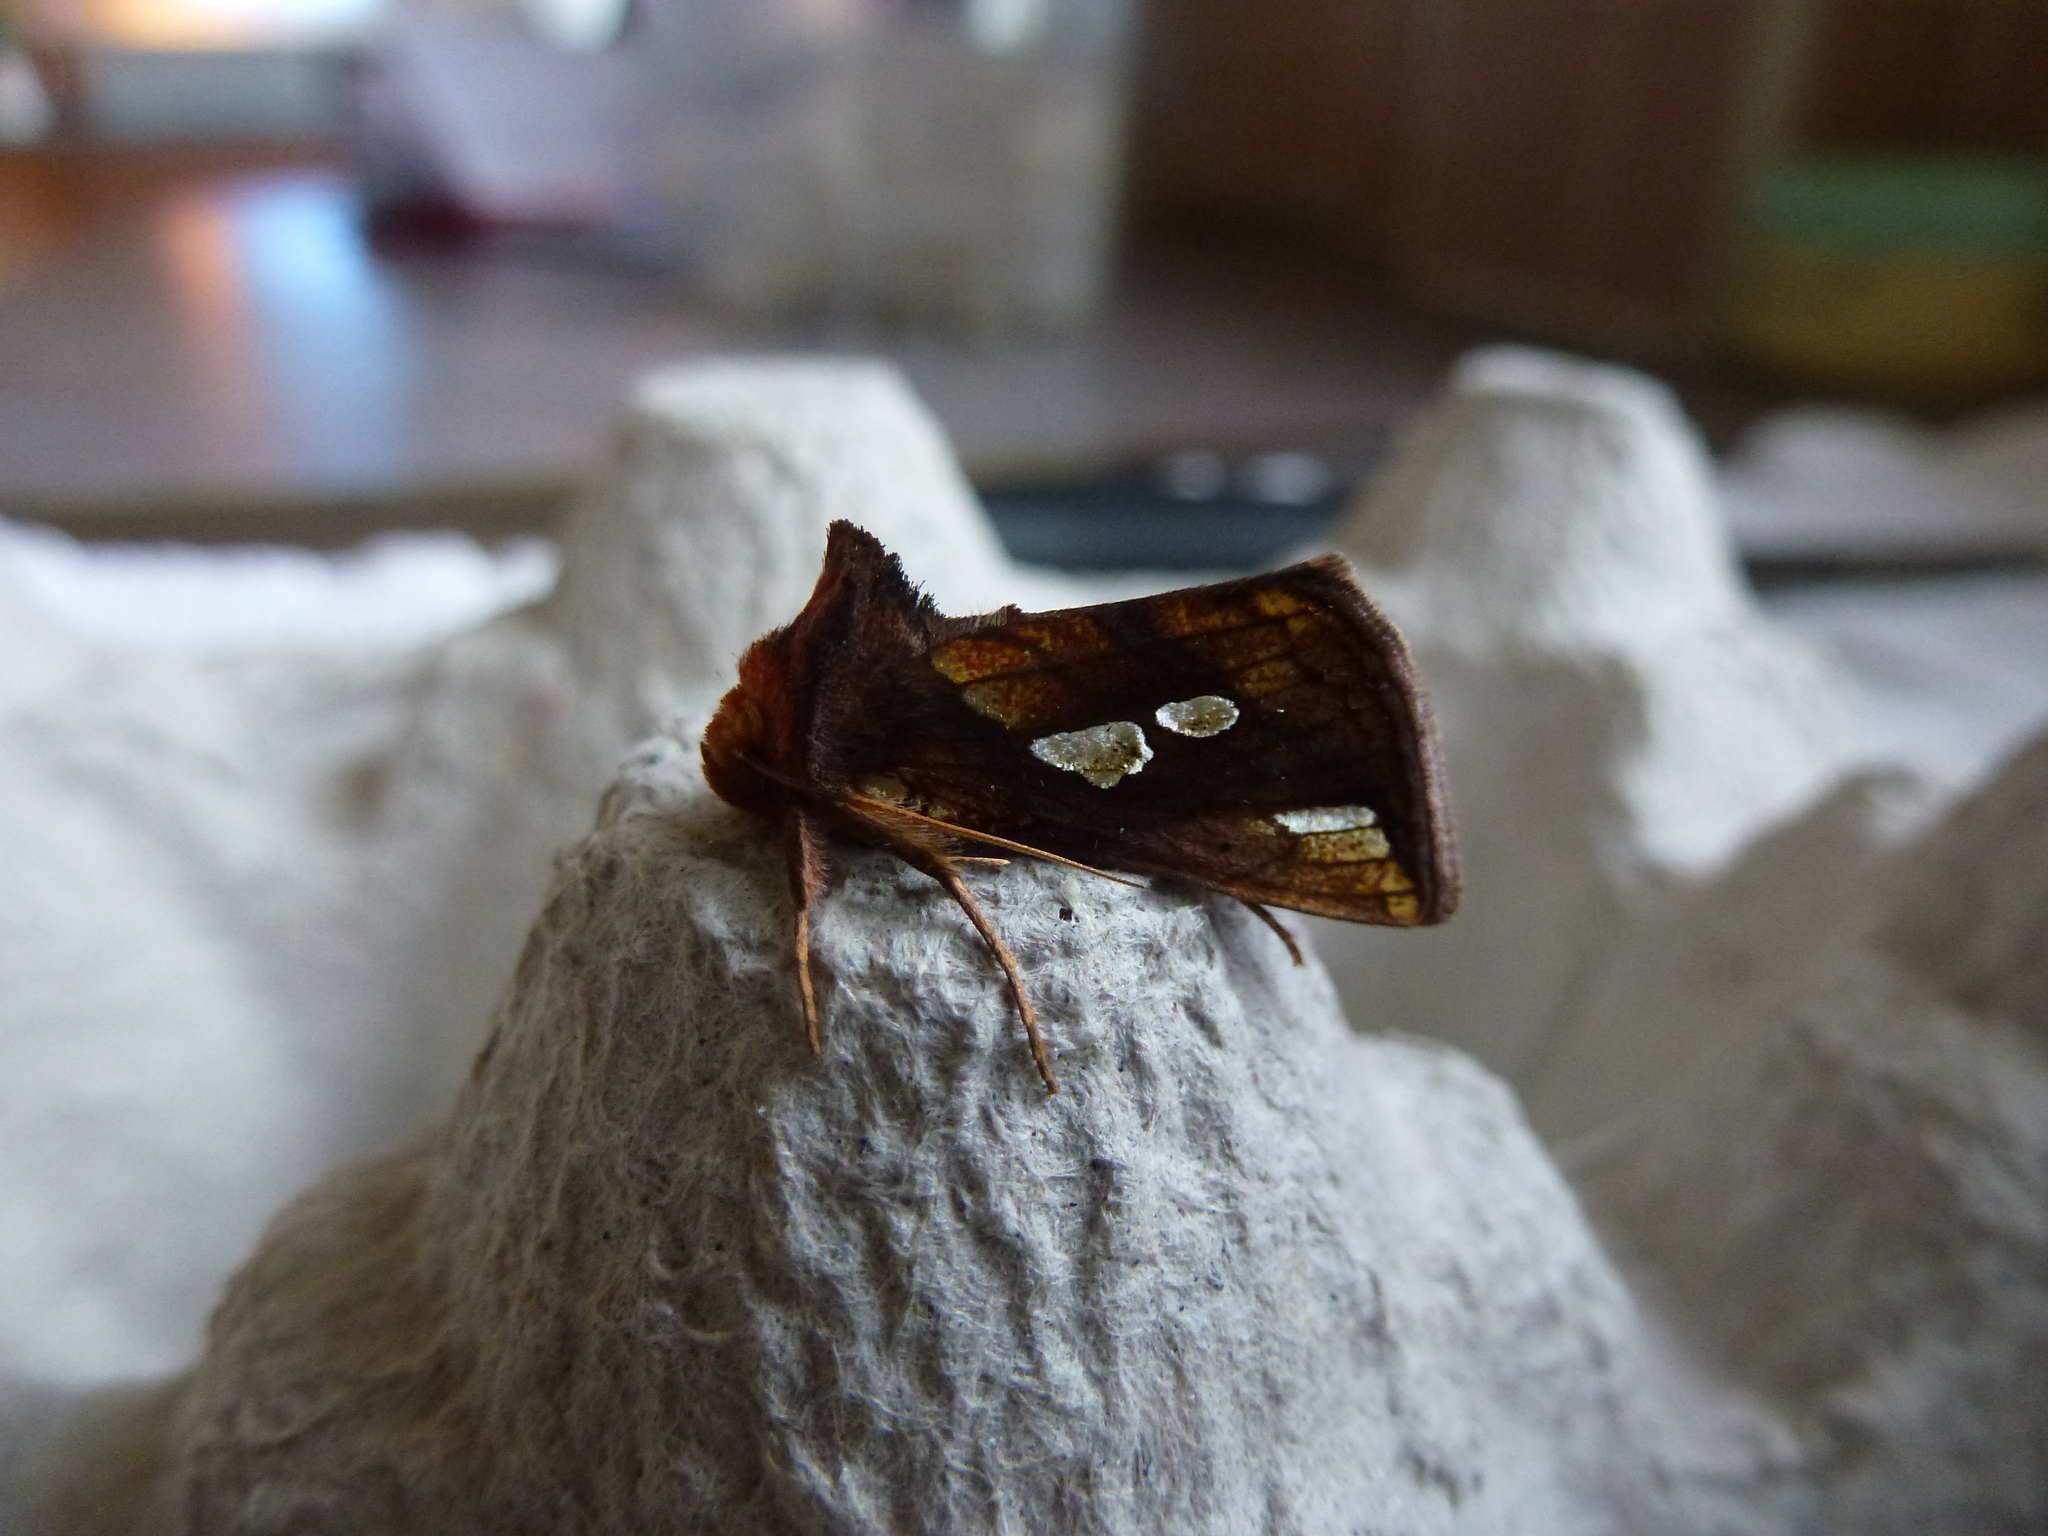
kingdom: Animalia
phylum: Arthropoda
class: Insecta
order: Lepidoptera
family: Noctuidae
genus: Plusia
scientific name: Plusia festucae
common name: Gold spot
